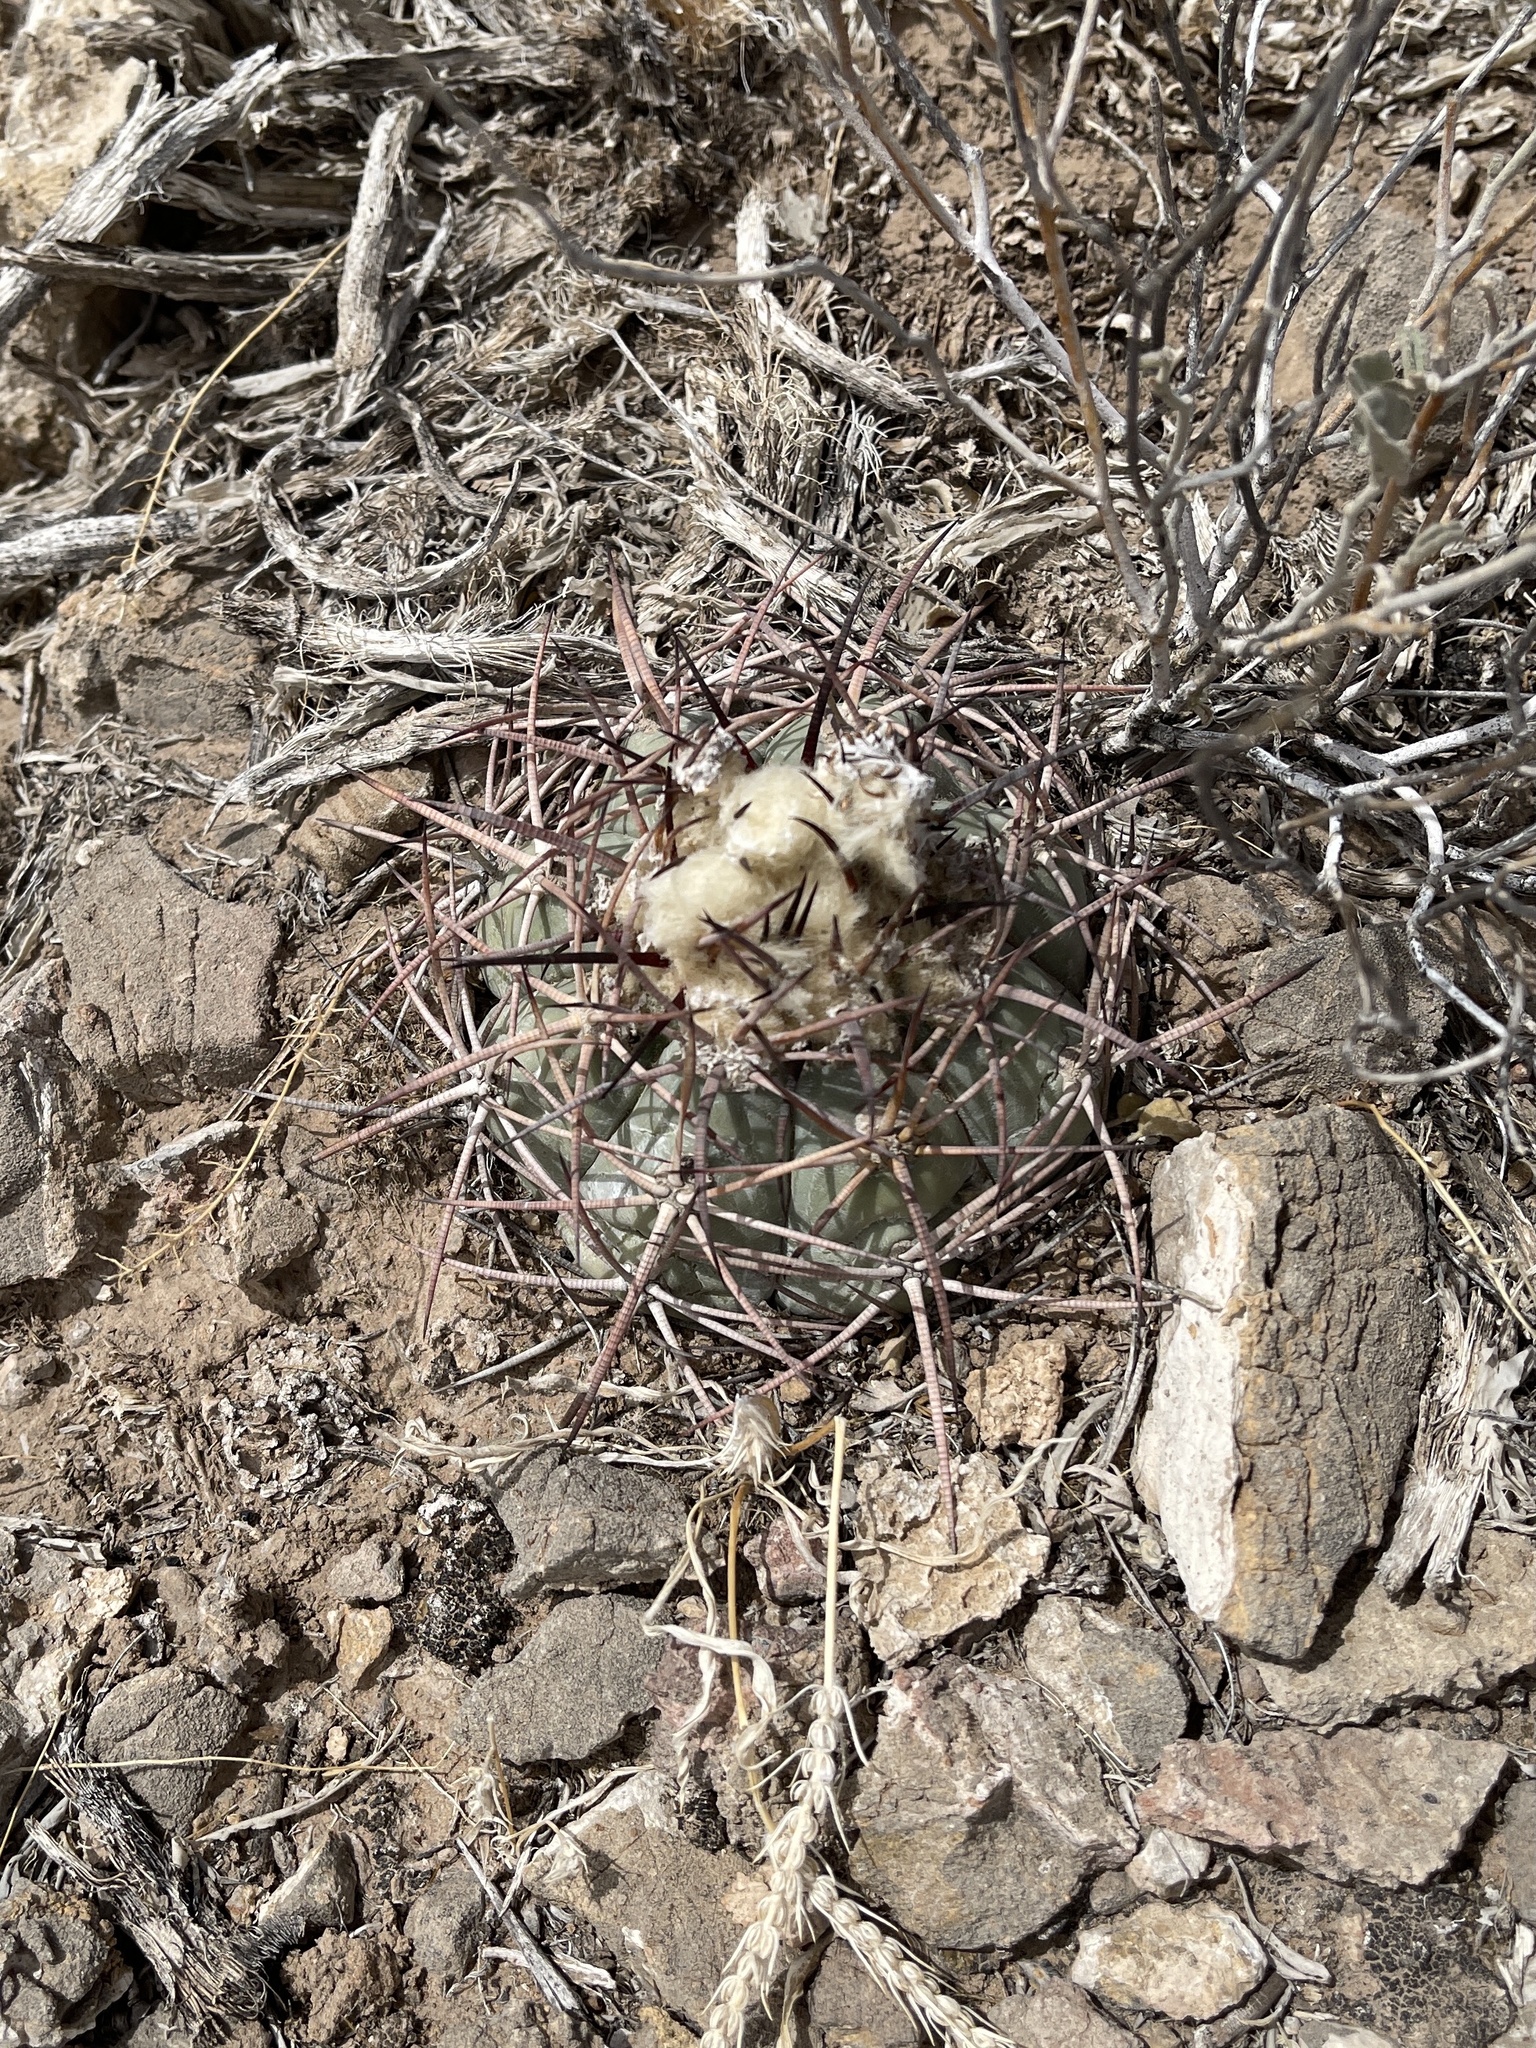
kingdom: Plantae
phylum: Tracheophyta
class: Magnoliopsida
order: Caryophyllales
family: Cactaceae
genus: Echinocactus
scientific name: Echinocactus horizonthalonius
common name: Devilshead
